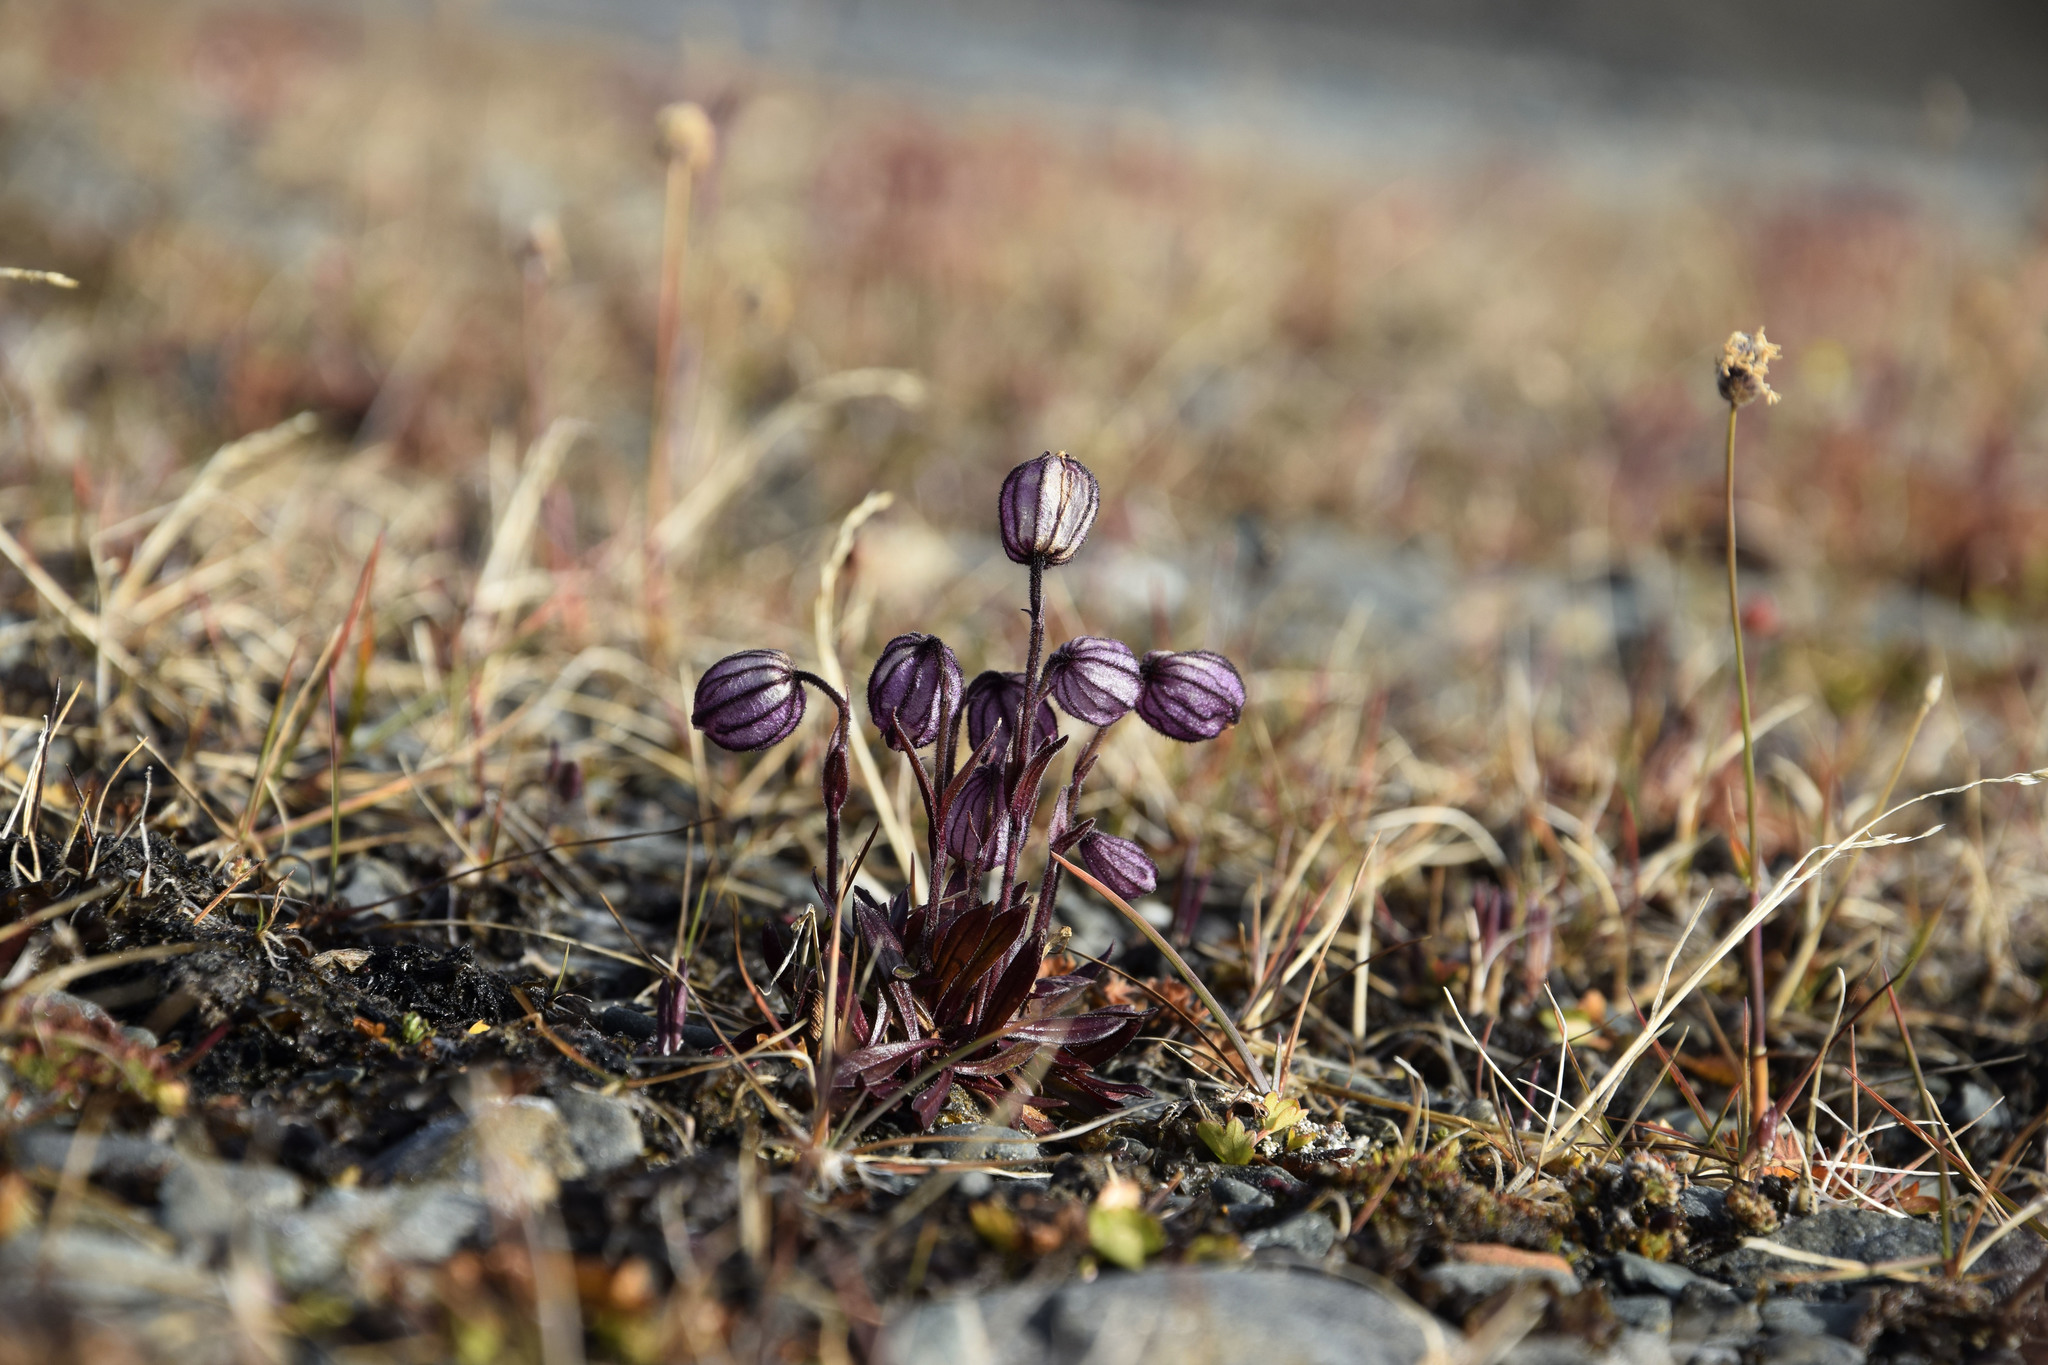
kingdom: Plantae
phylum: Tracheophyta
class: Magnoliopsida
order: Caryophyllales
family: Caryophyllaceae
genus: Silene
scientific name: Silene wahlbergella
